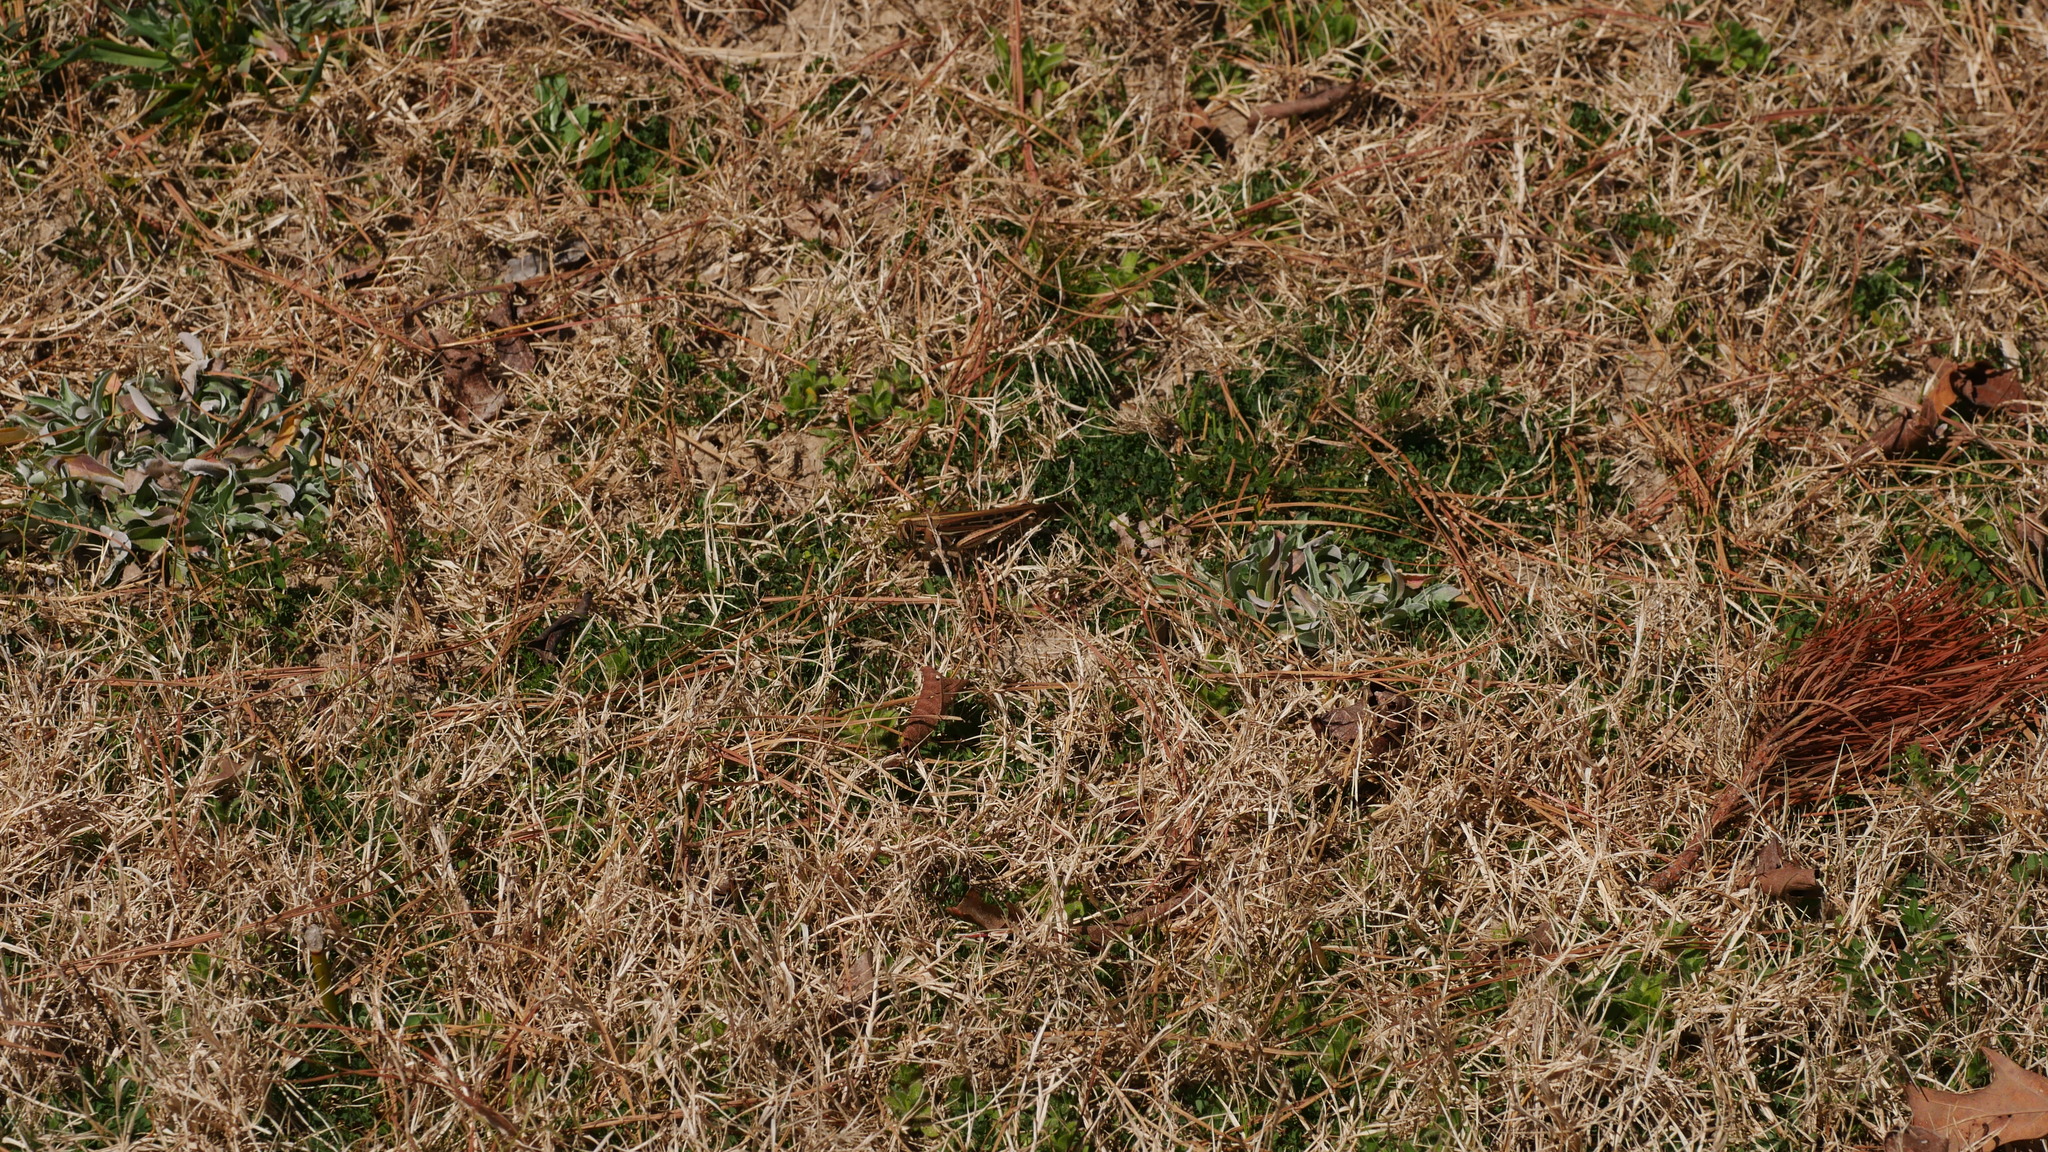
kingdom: Animalia
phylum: Arthropoda
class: Insecta
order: Orthoptera
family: Acrididae
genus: Schistocerca
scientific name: Schistocerca americana
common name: American bird locust
